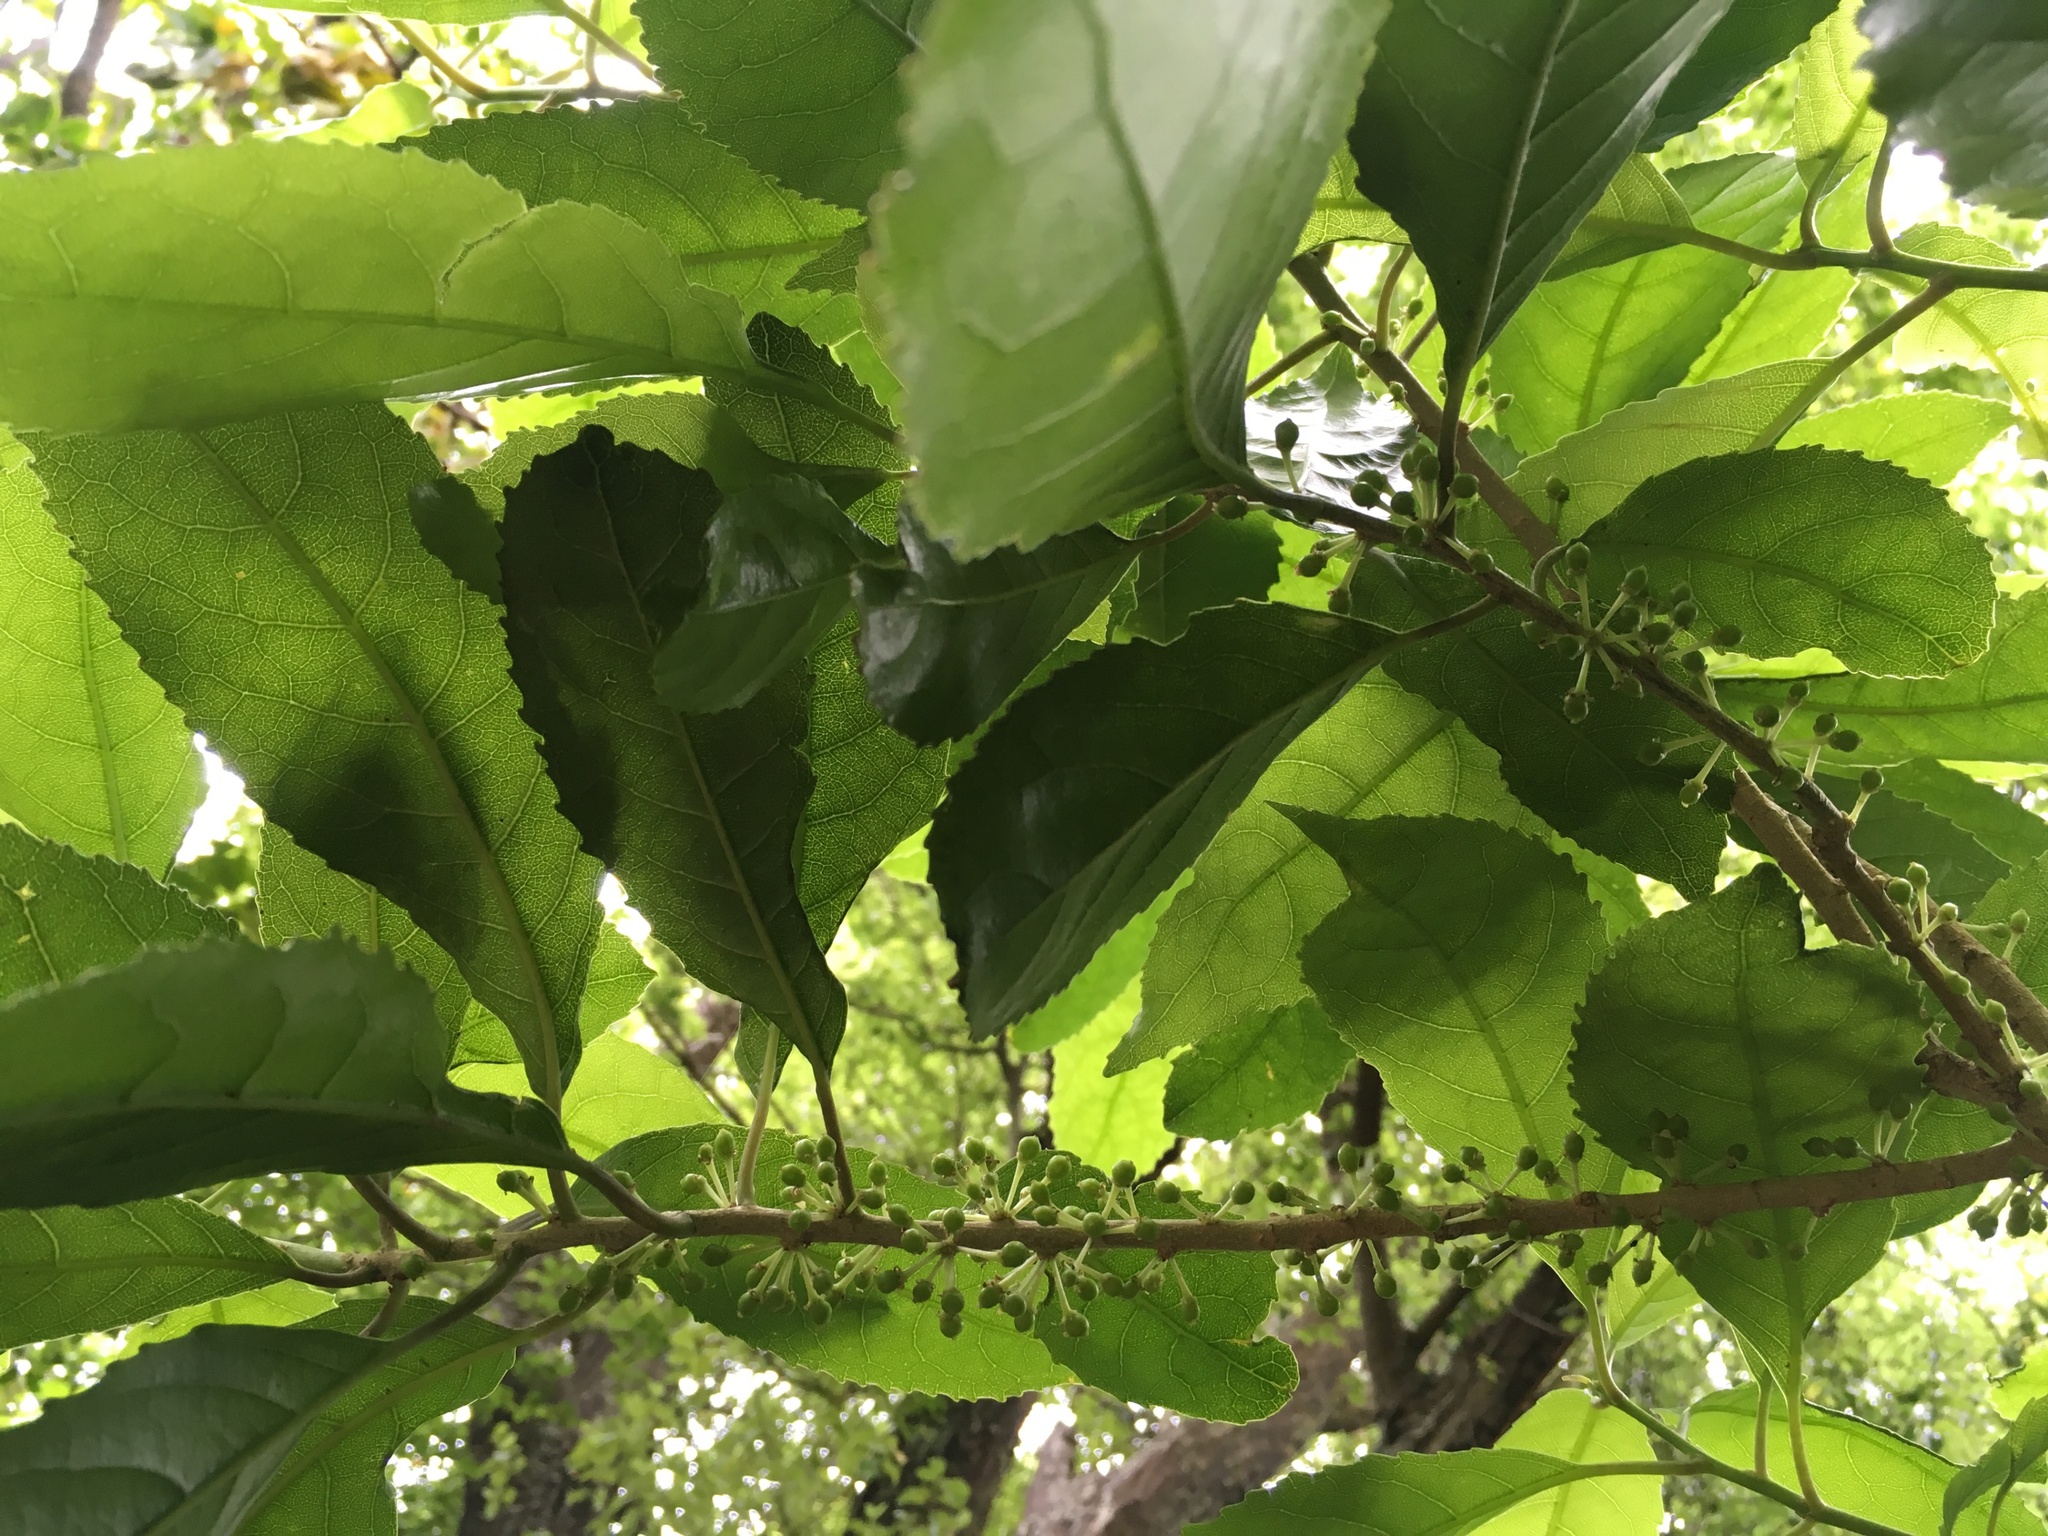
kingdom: Plantae
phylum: Tracheophyta
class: Magnoliopsida
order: Malpighiales
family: Violaceae
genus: Melicytus
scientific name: Melicytus ramiflorus
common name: Mahoe
